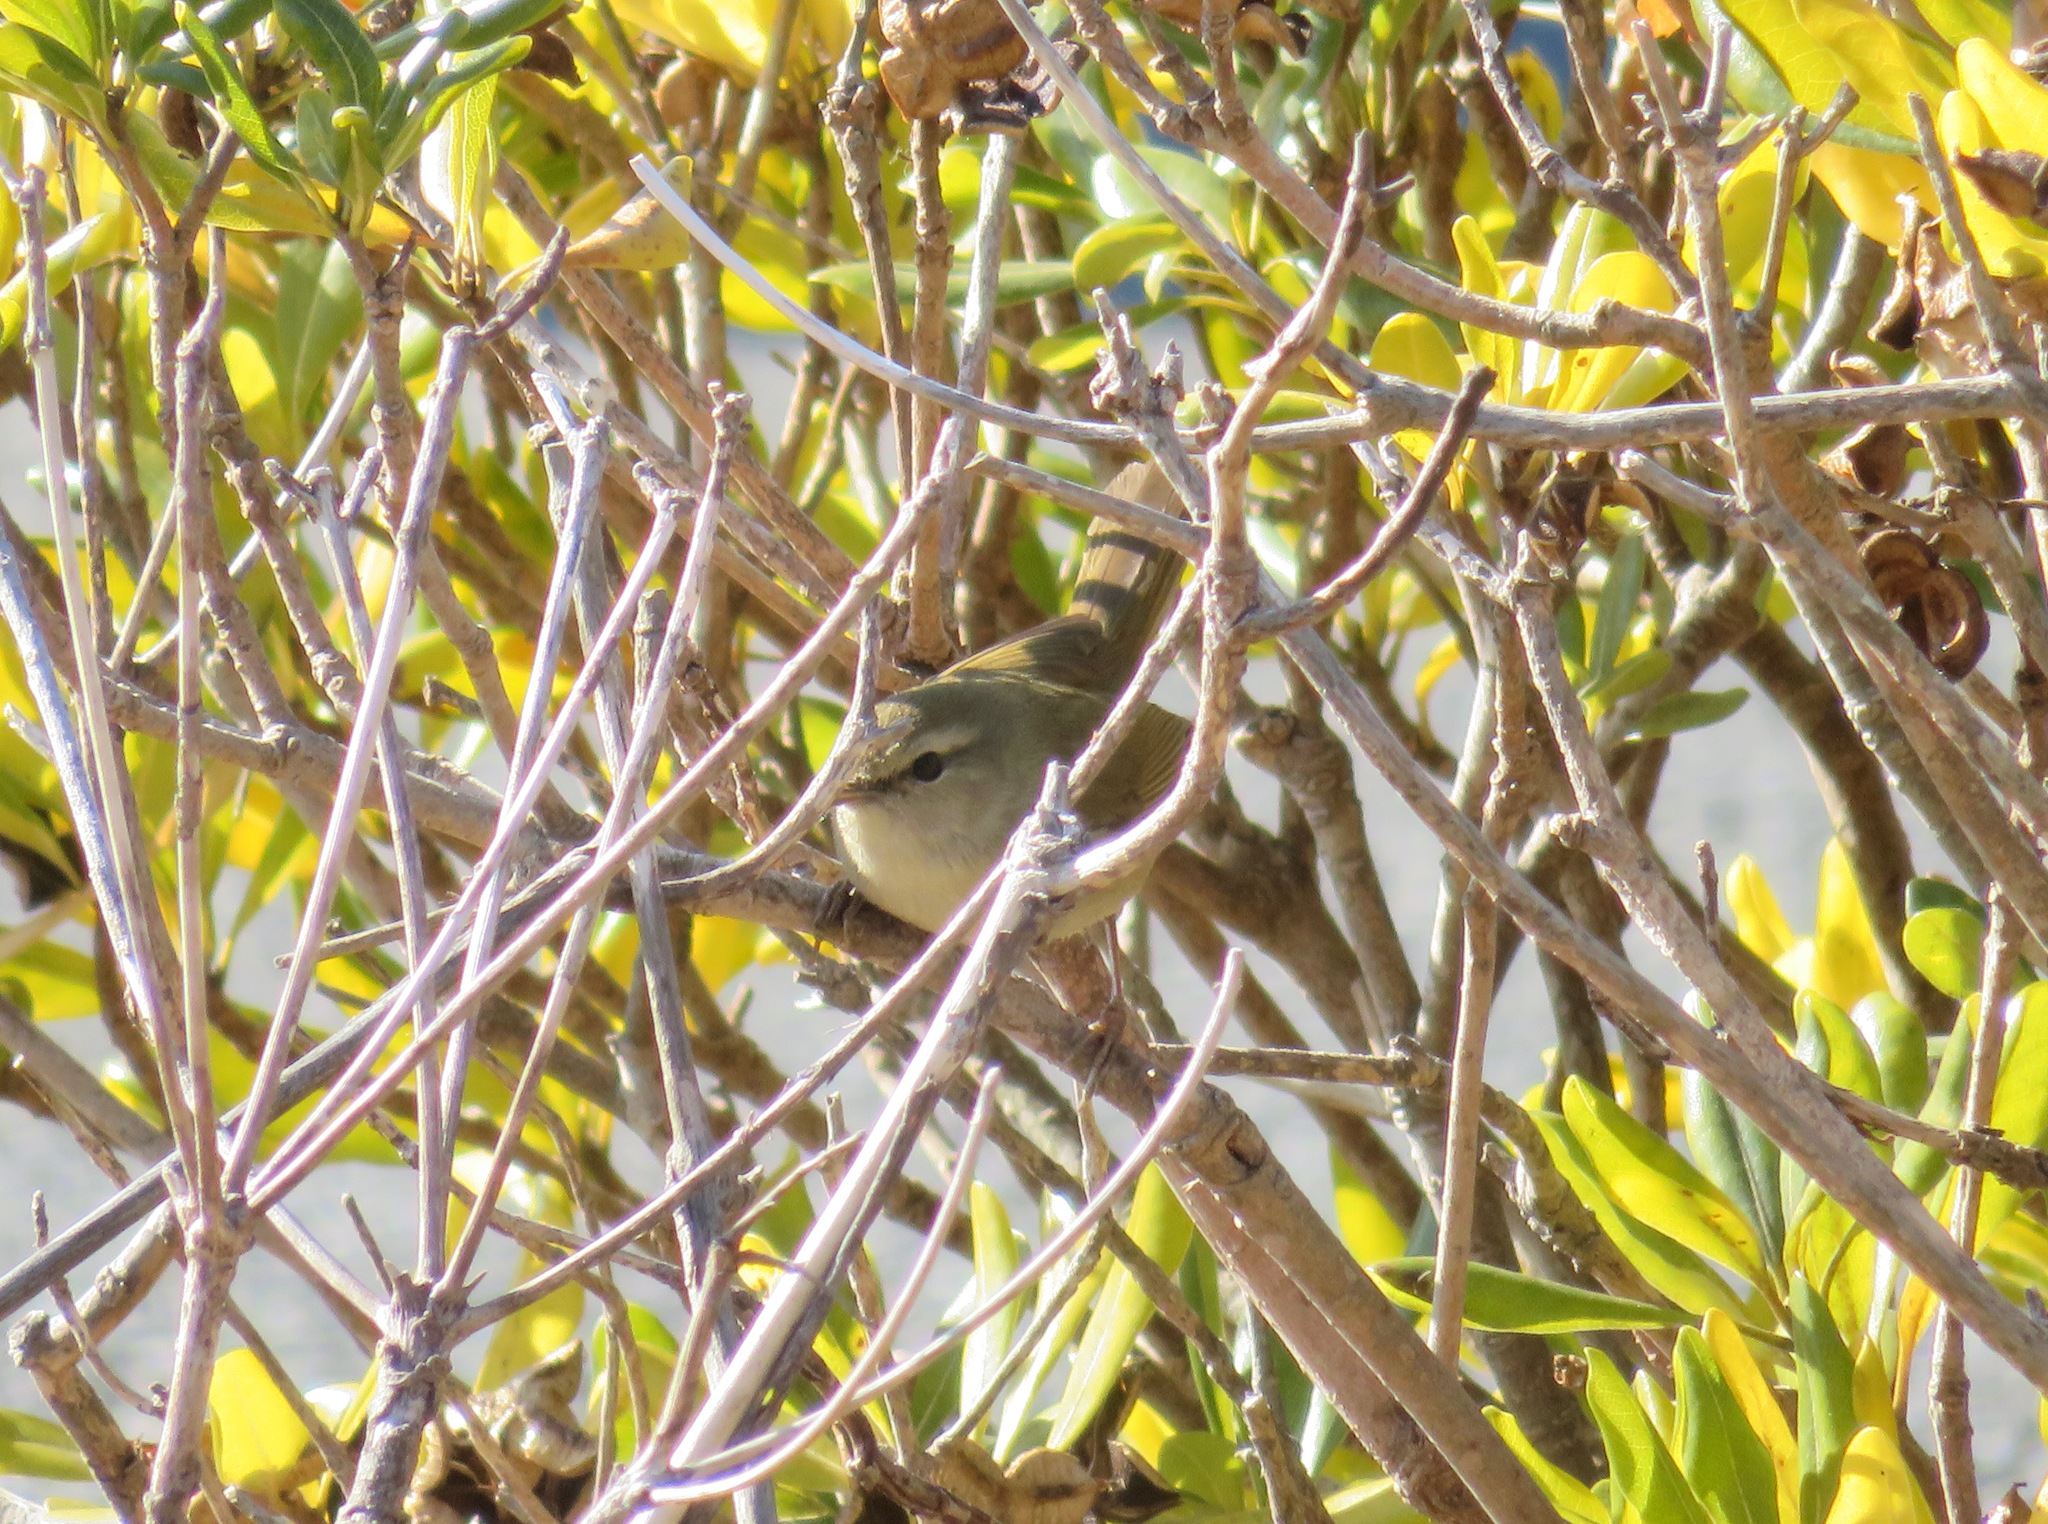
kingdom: Animalia
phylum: Chordata
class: Aves
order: Passeriformes
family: Cettiidae
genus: Horornis
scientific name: Horornis diphone
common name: Japanese bush warbler
